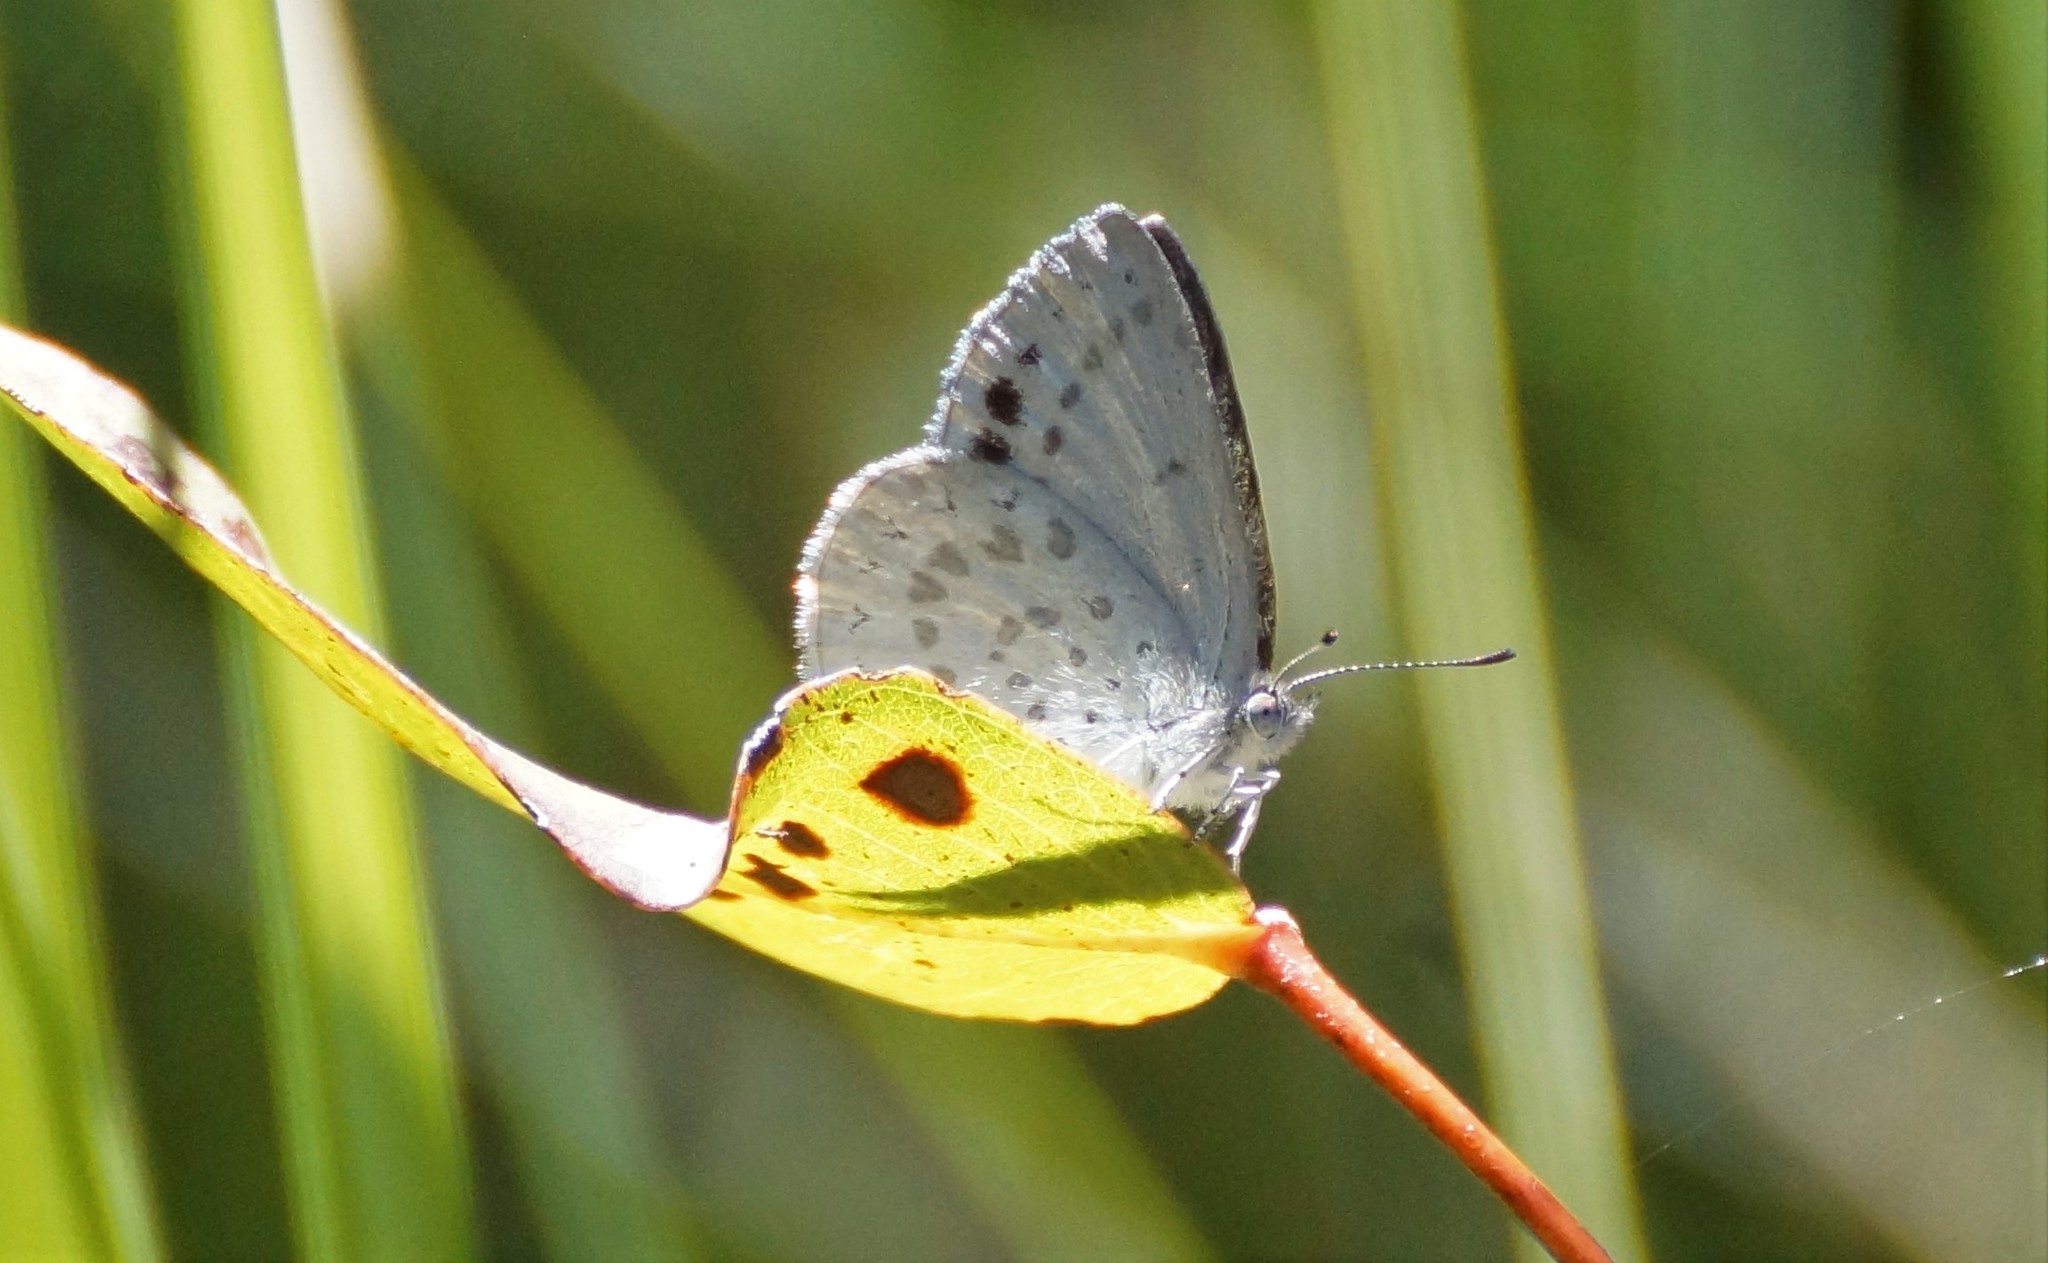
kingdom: Animalia
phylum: Arthropoda
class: Insecta
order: Lepidoptera
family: Lycaenidae
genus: Candalides
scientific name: Candalides
